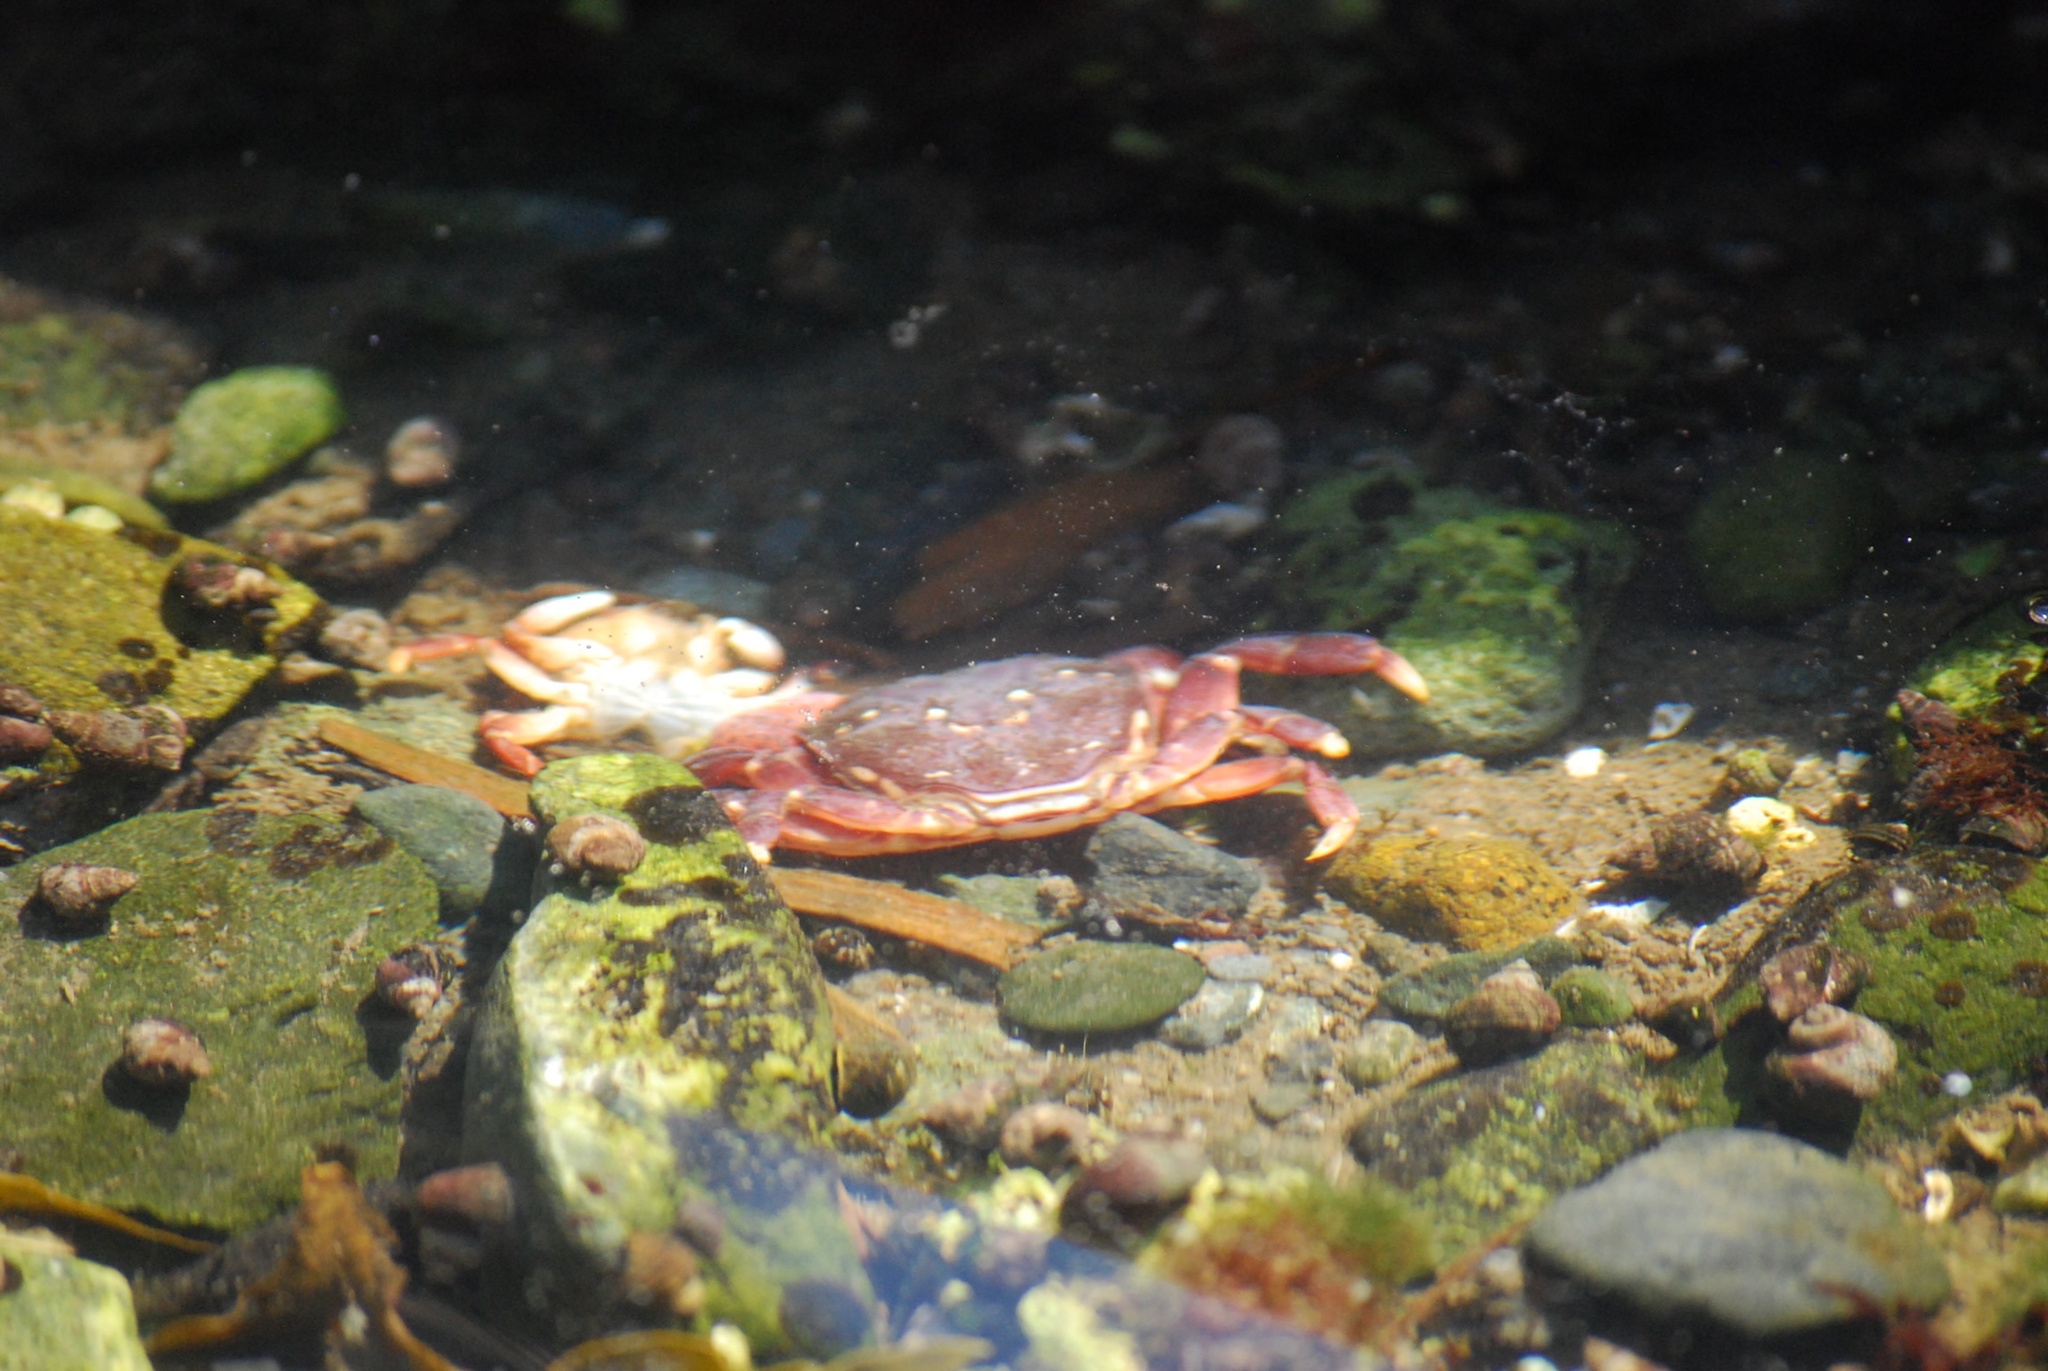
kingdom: Animalia
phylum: Arthropoda
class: Malacostraca
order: Decapoda
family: Varunidae
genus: Hemigrapsus
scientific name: Hemigrapsus nudus
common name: Purple shore crab
